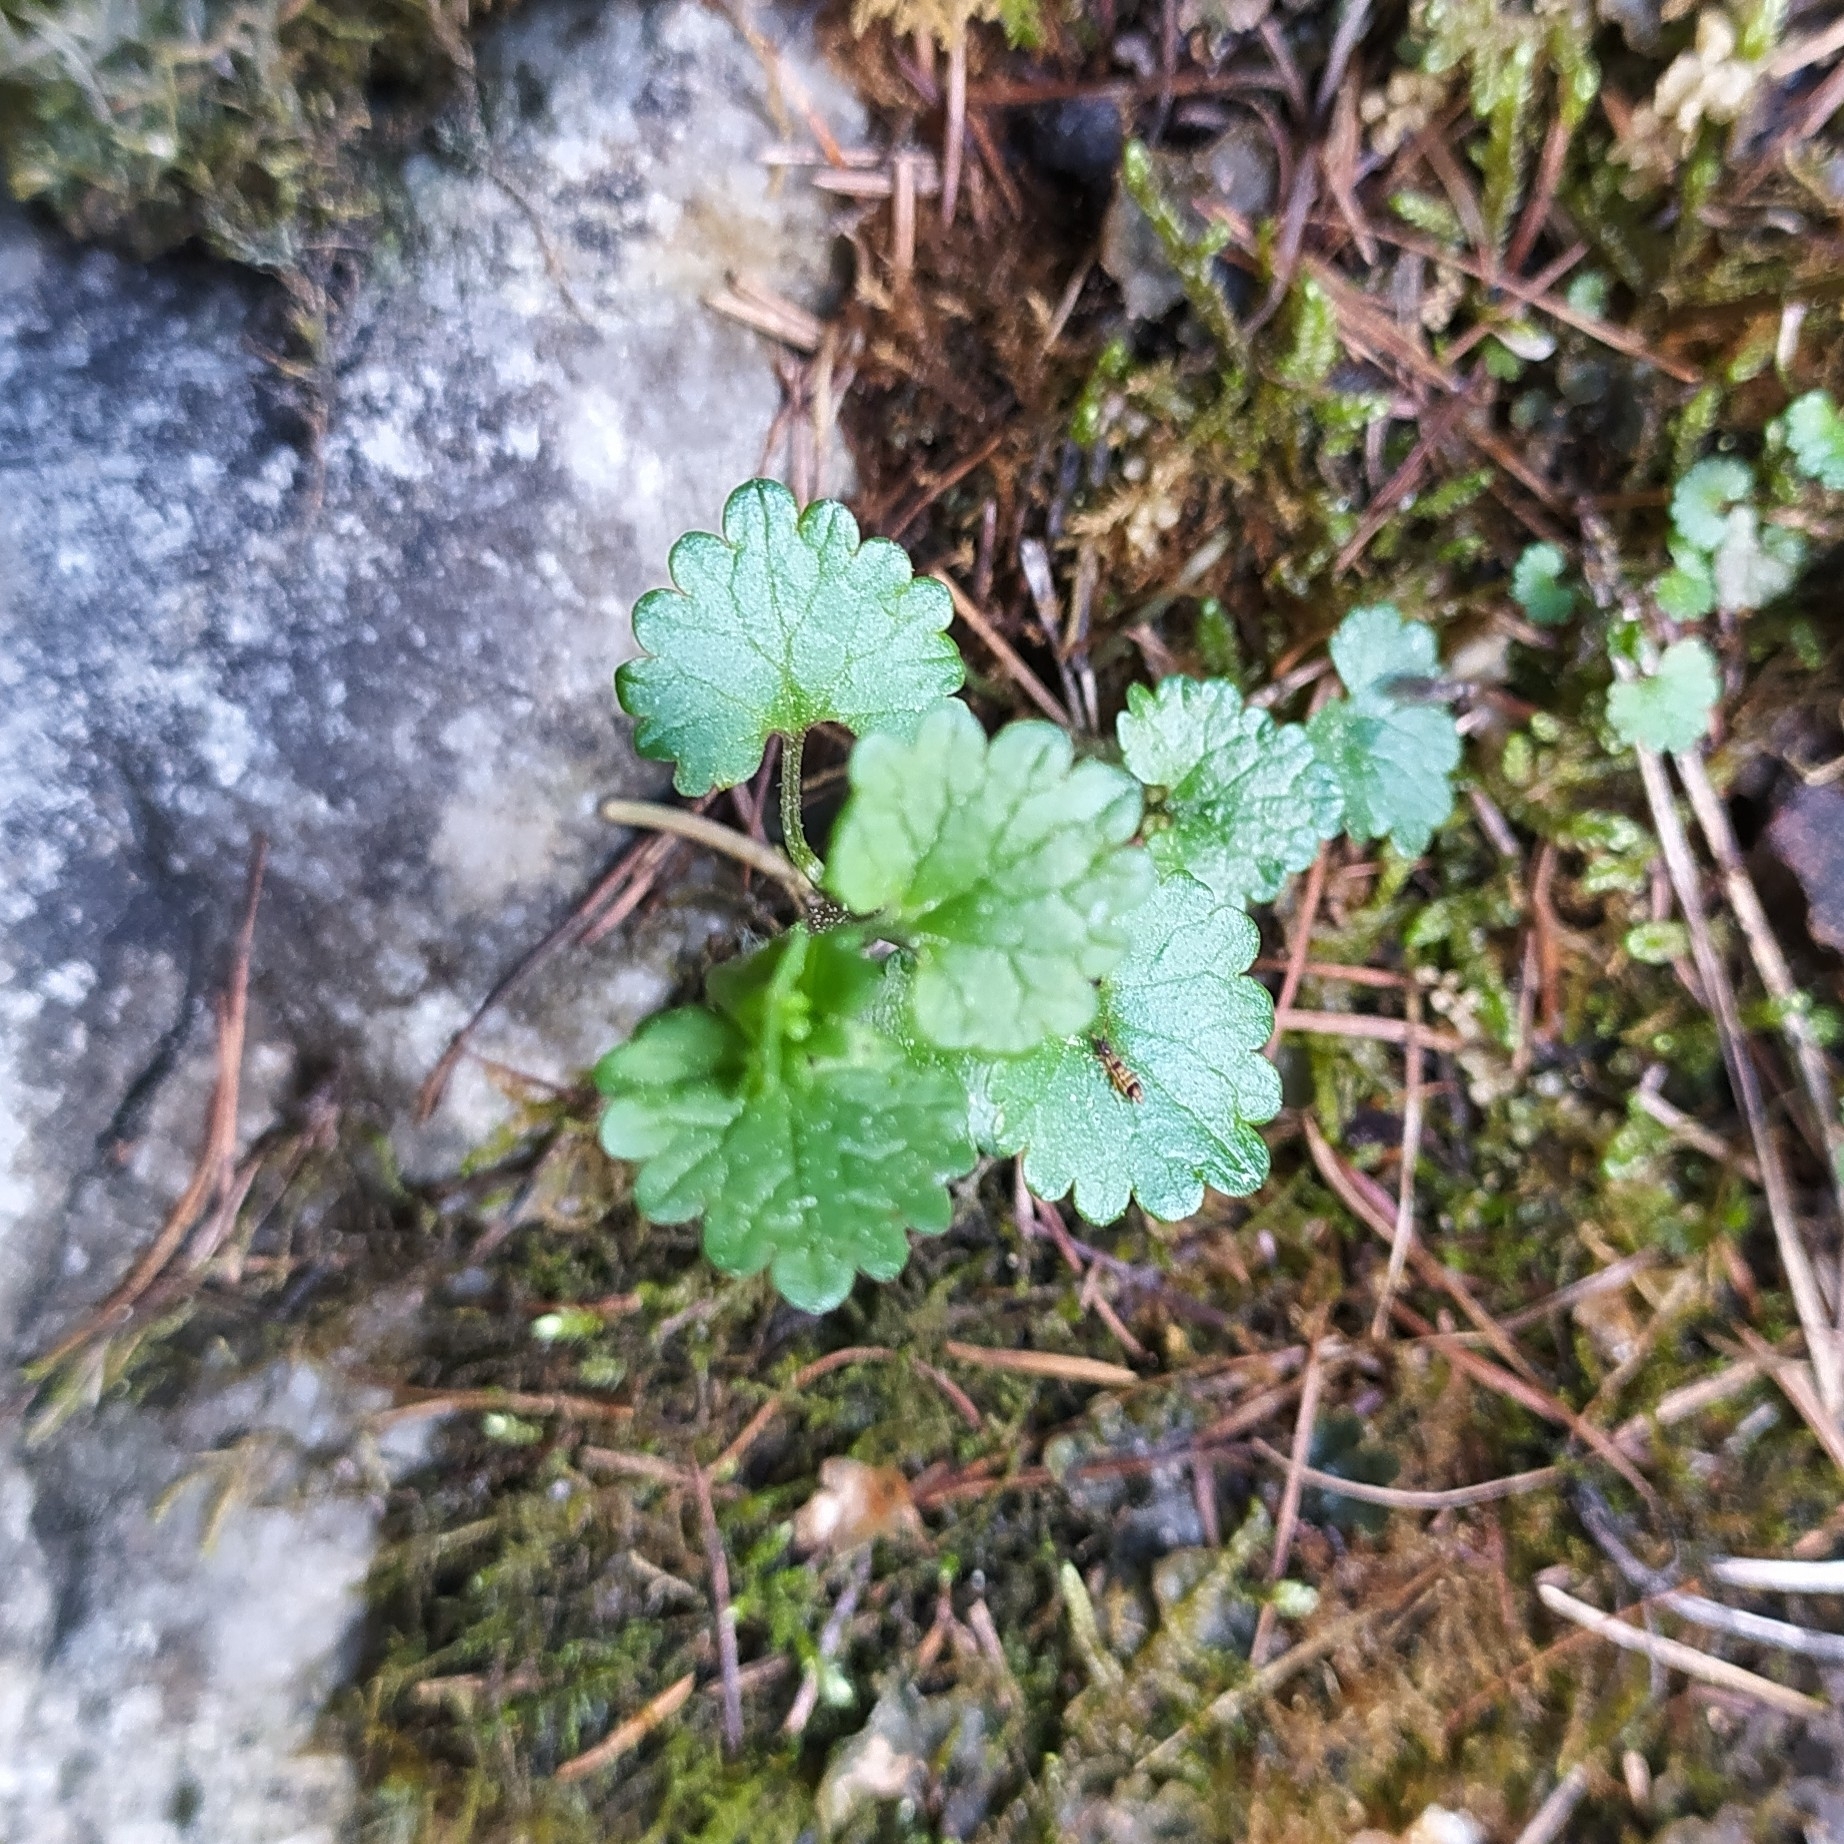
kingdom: Plantae
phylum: Tracheophyta
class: Magnoliopsida
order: Lamiales
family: Lamiaceae
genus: Glechoma
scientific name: Glechoma hederacea
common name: Ground ivy
